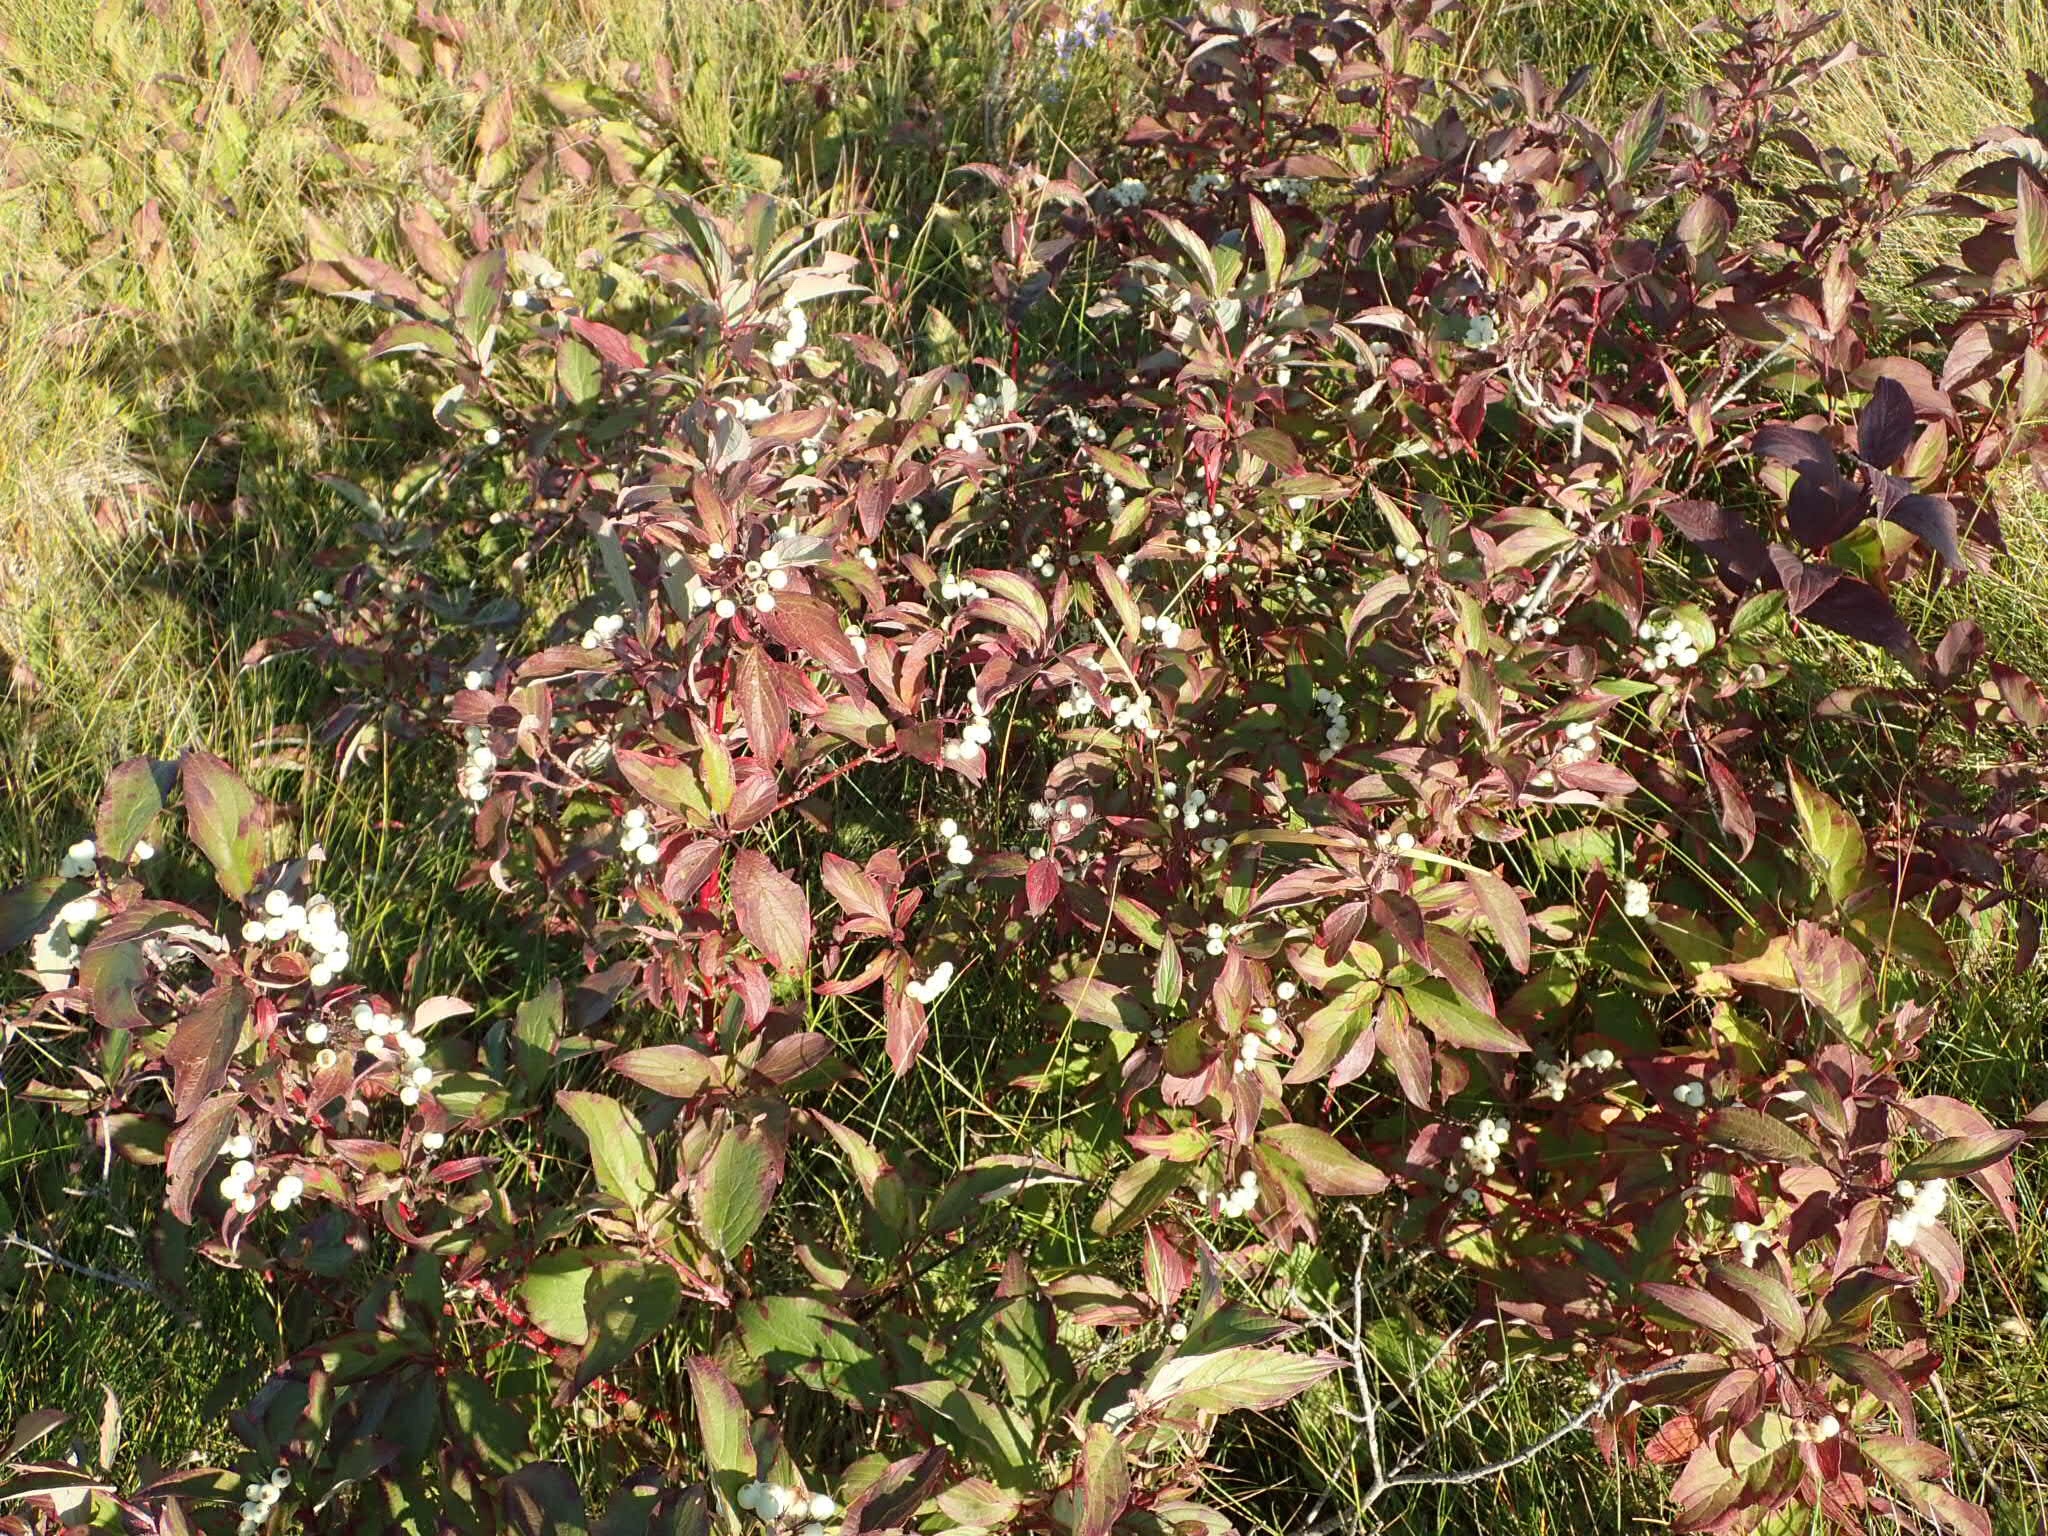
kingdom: Plantae
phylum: Tracheophyta
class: Magnoliopsida
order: Cornales
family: Cornaceae
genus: Cornus
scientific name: Cornus sericea
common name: Red-osier dogwood
